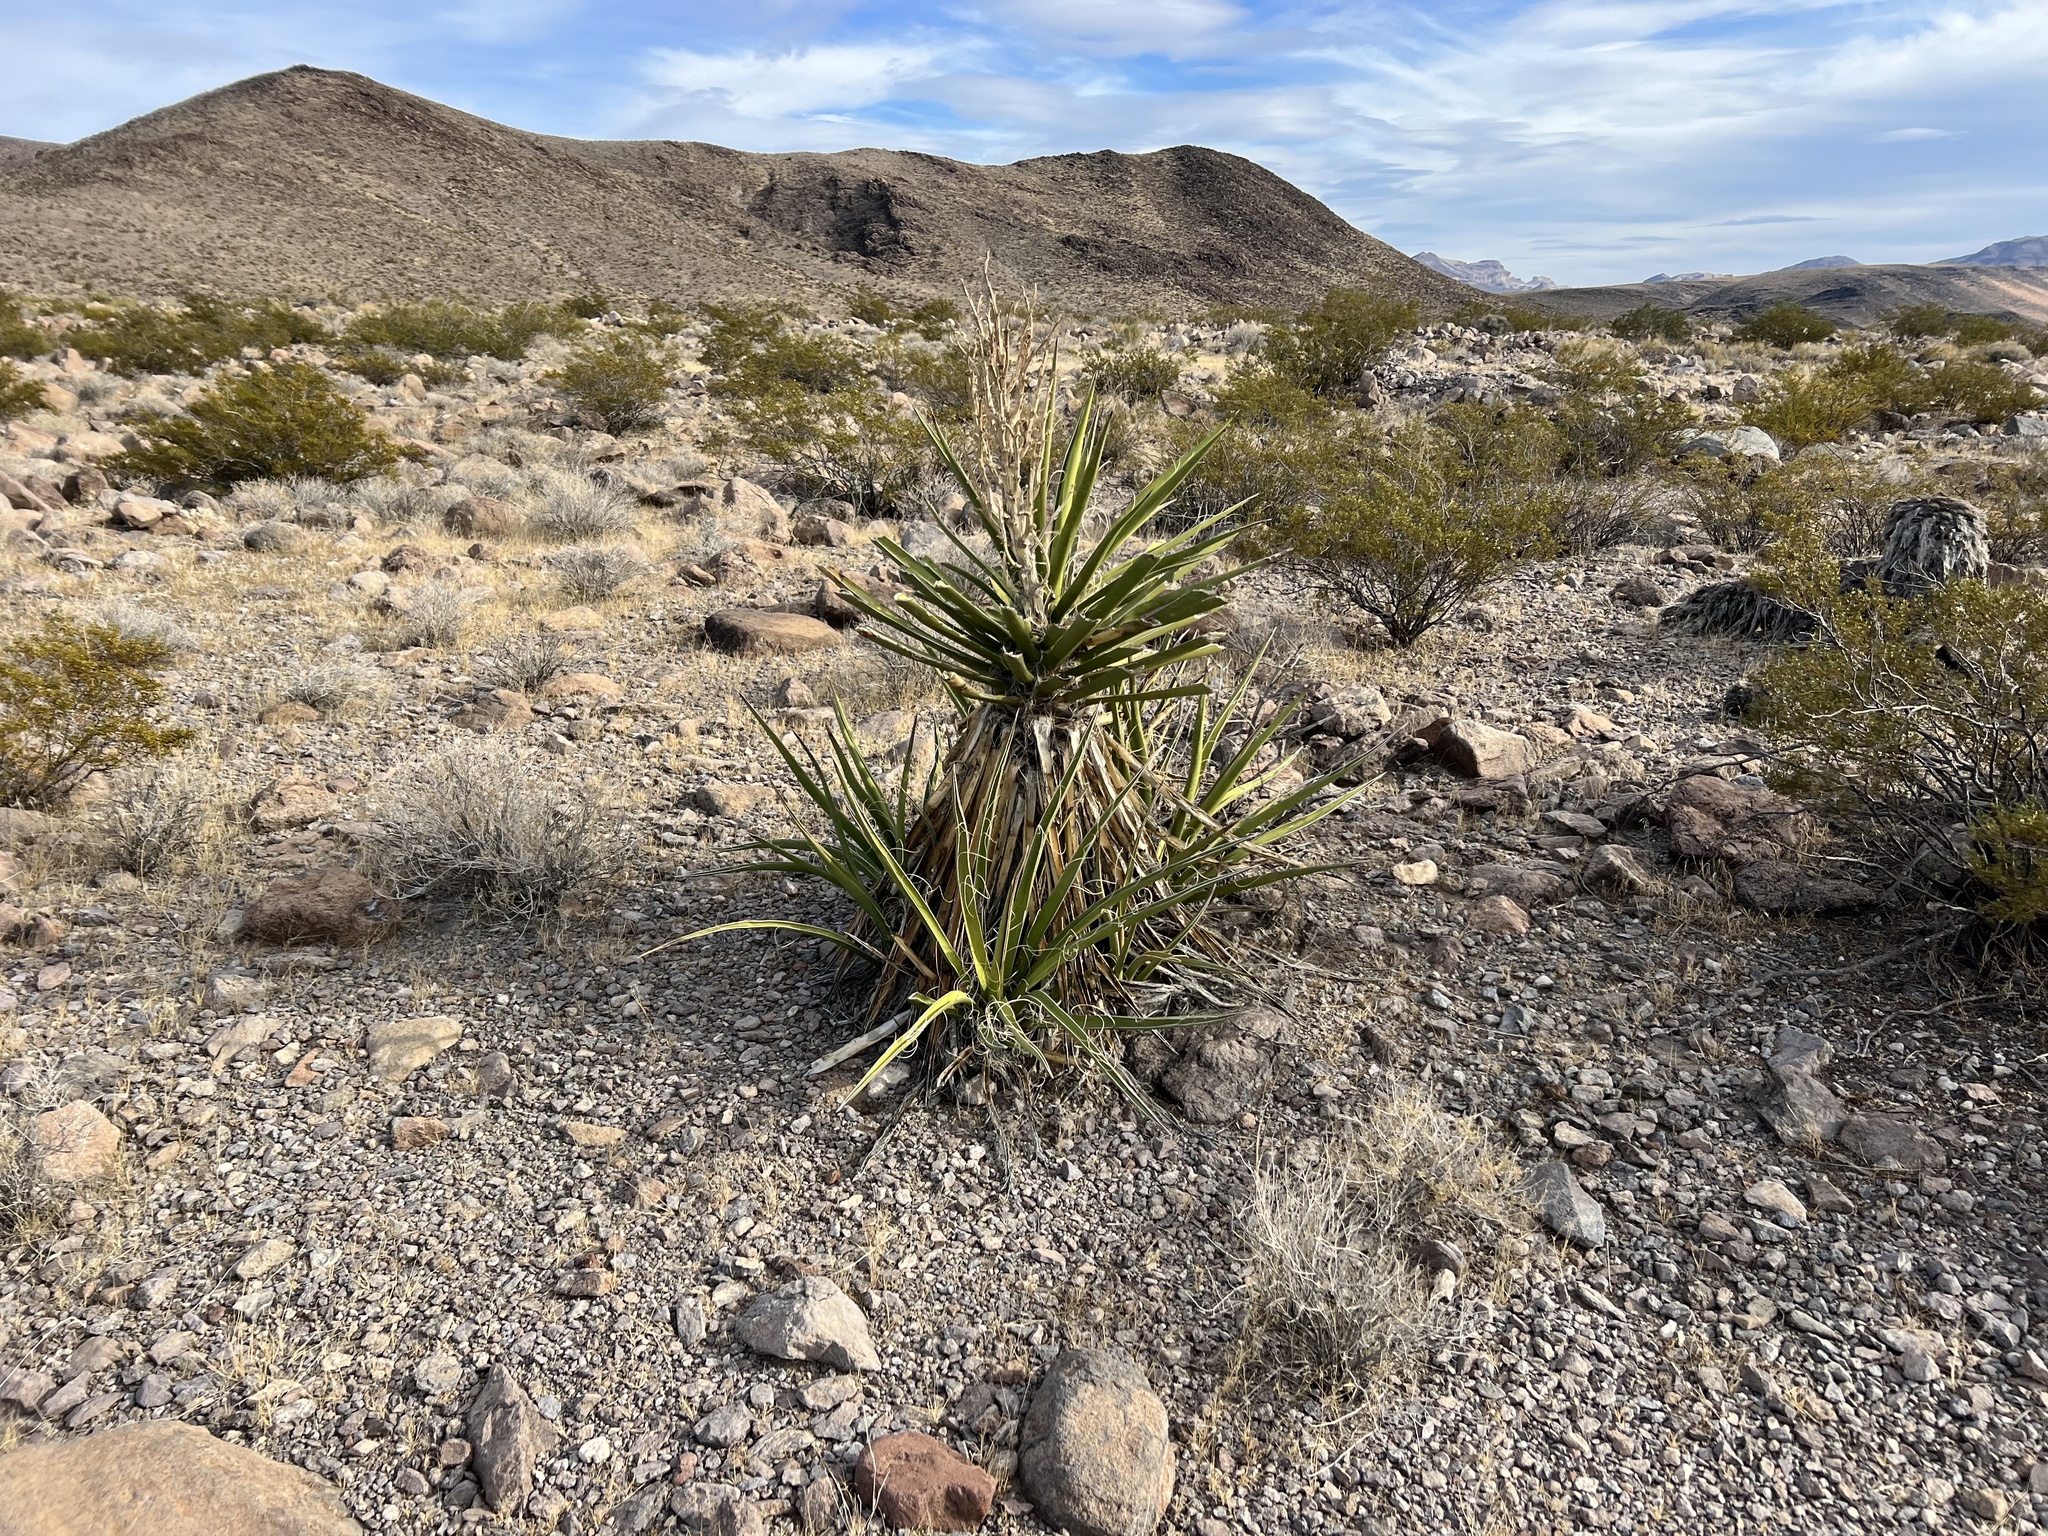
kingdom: Plantae
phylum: Tracheophyta
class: Liliopsida
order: Asparagales
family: Asparagaceae
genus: Yucca
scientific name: Yucca schidigera
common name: Mojave yucca
